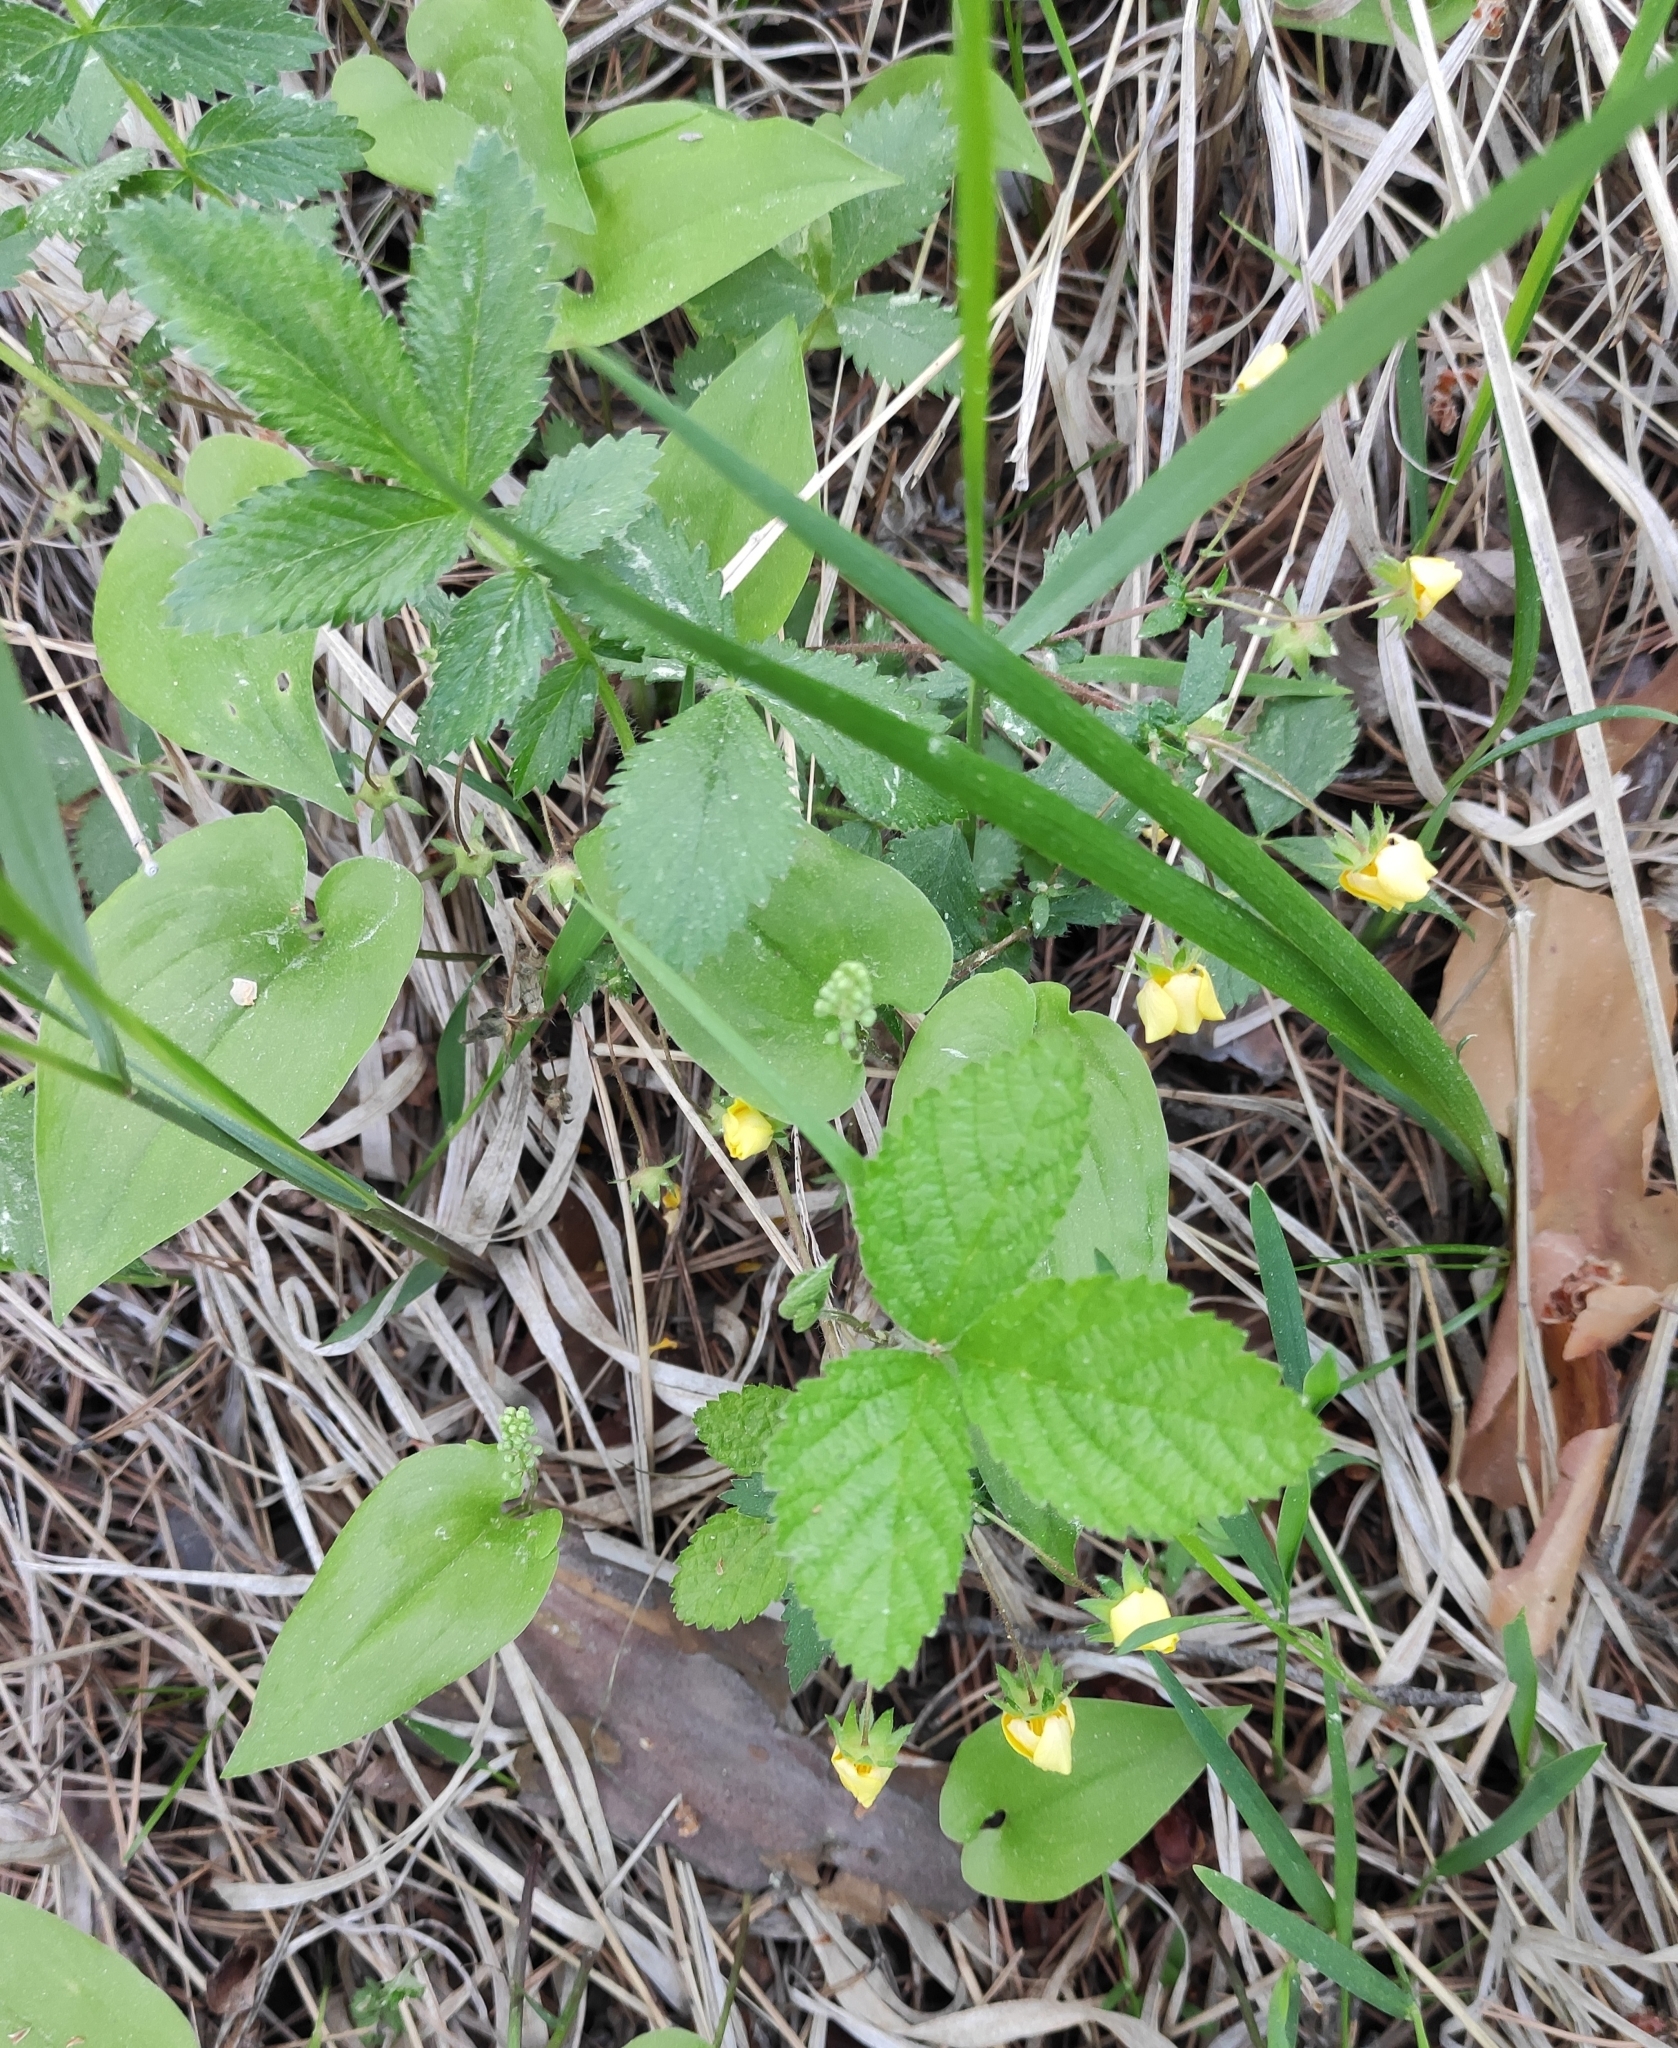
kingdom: Plantae
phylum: Tracheophyta
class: Magnoliopsida
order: Rosales
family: Rosaceae
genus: Potentilla
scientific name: Potentilla fragarioides
